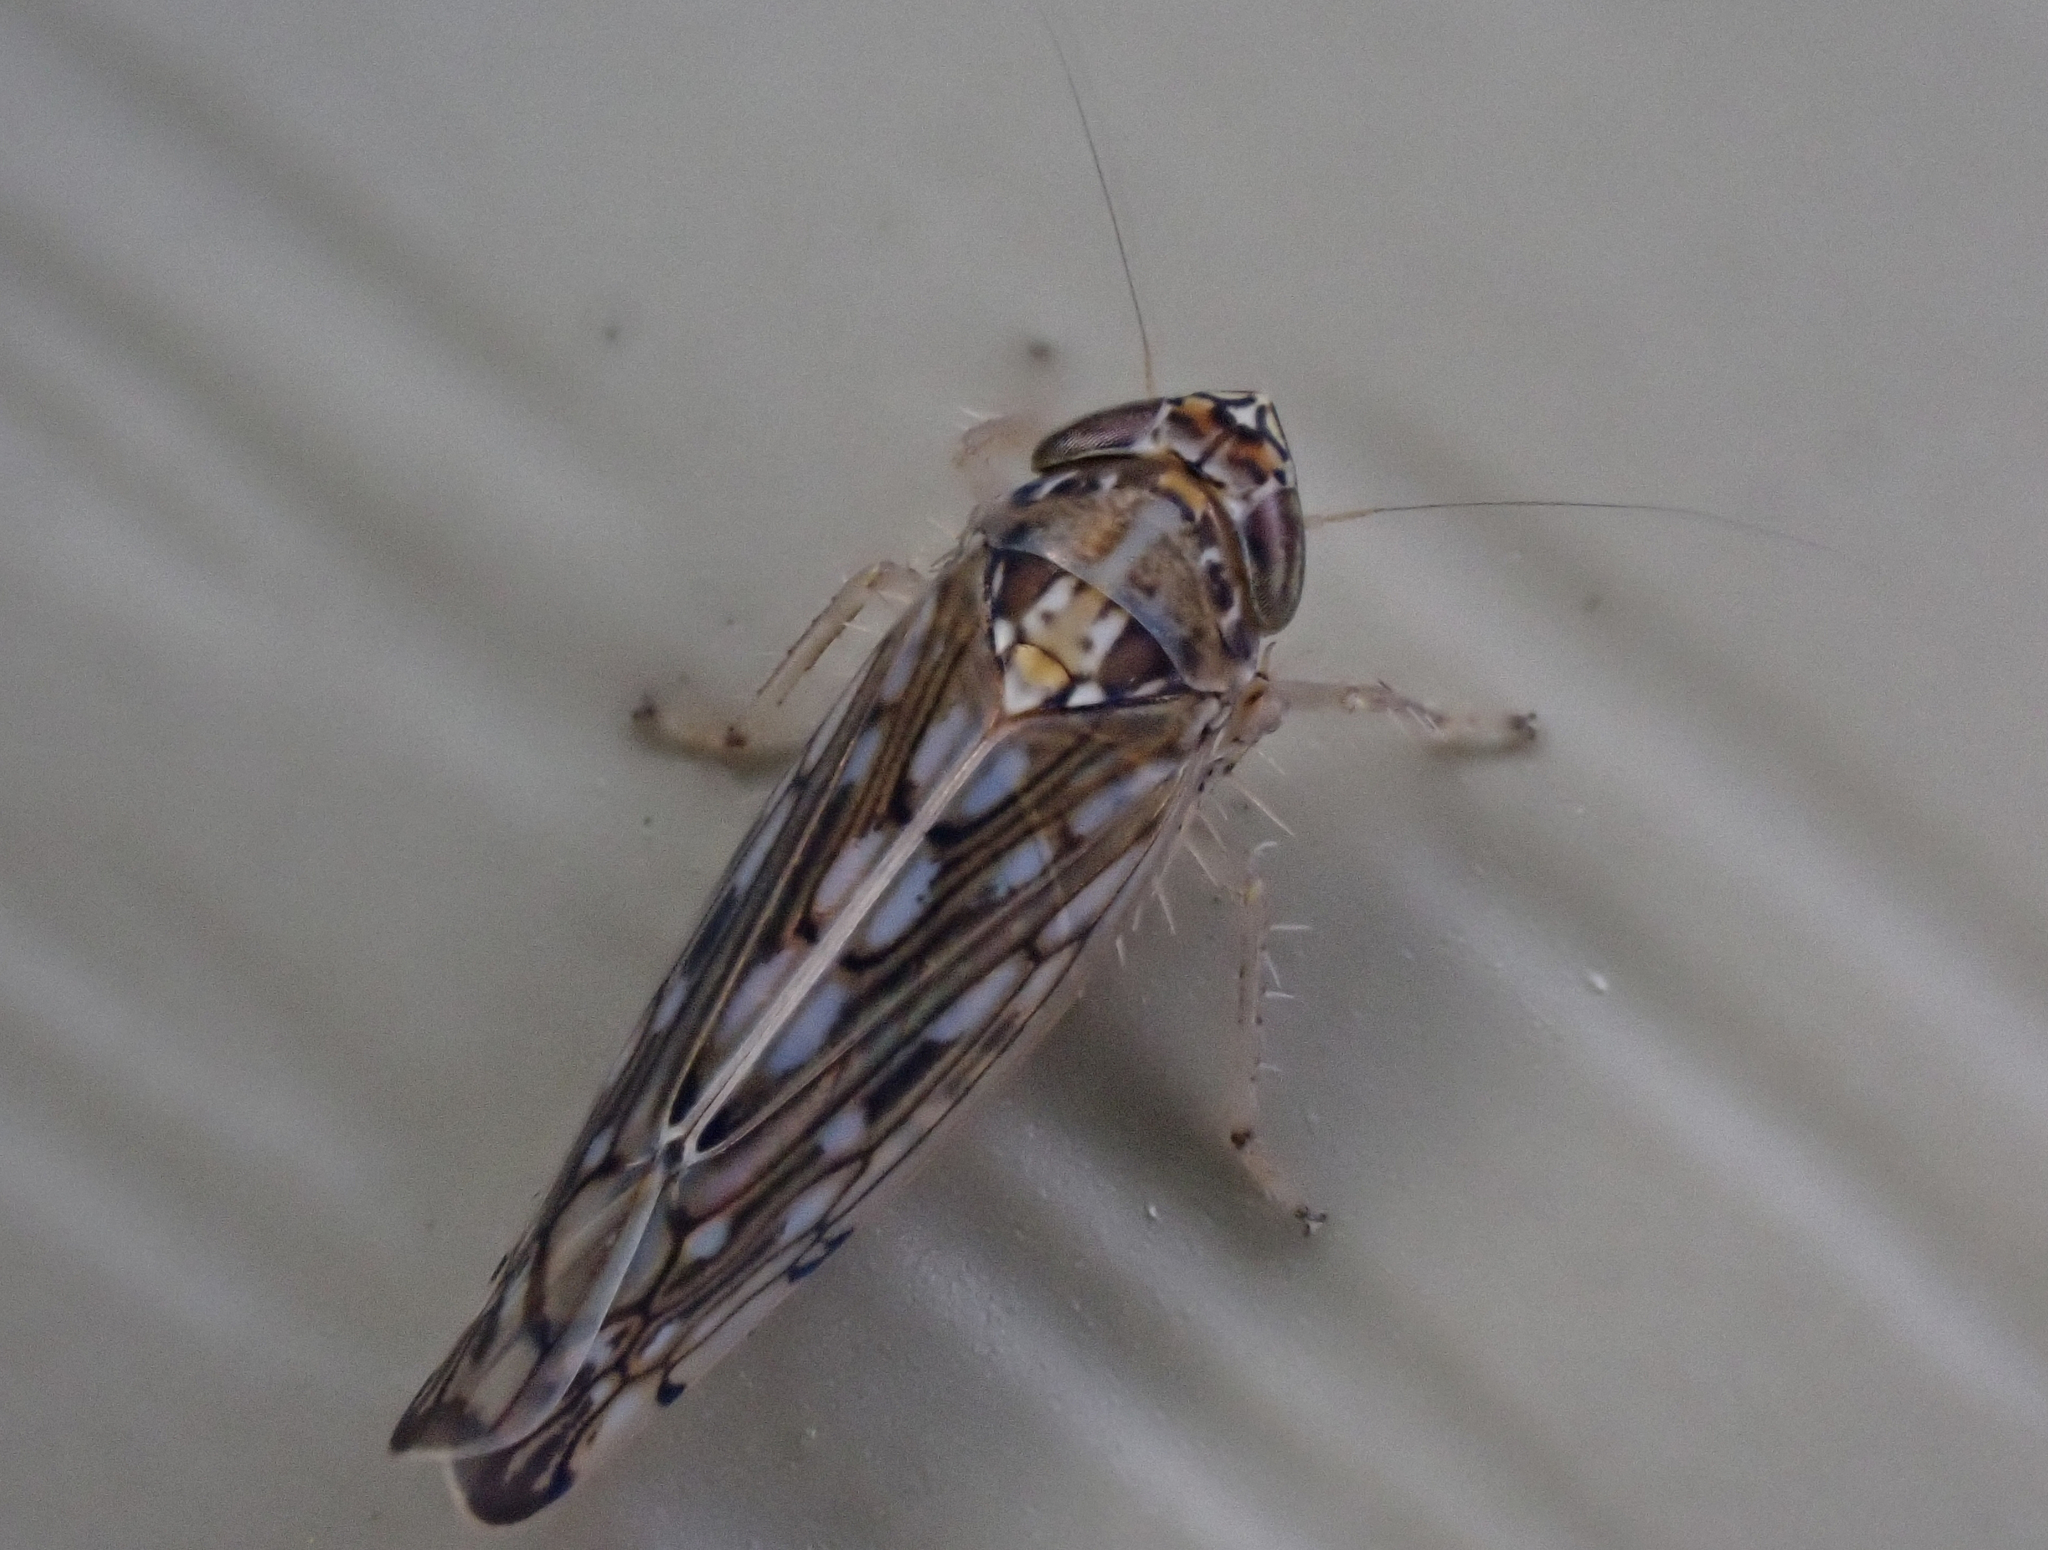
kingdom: Animalia
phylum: Arthropoda
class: Insecta
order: Hemiptera
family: Cicadellidae
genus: Osbornellus
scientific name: Osbornellus clarus
